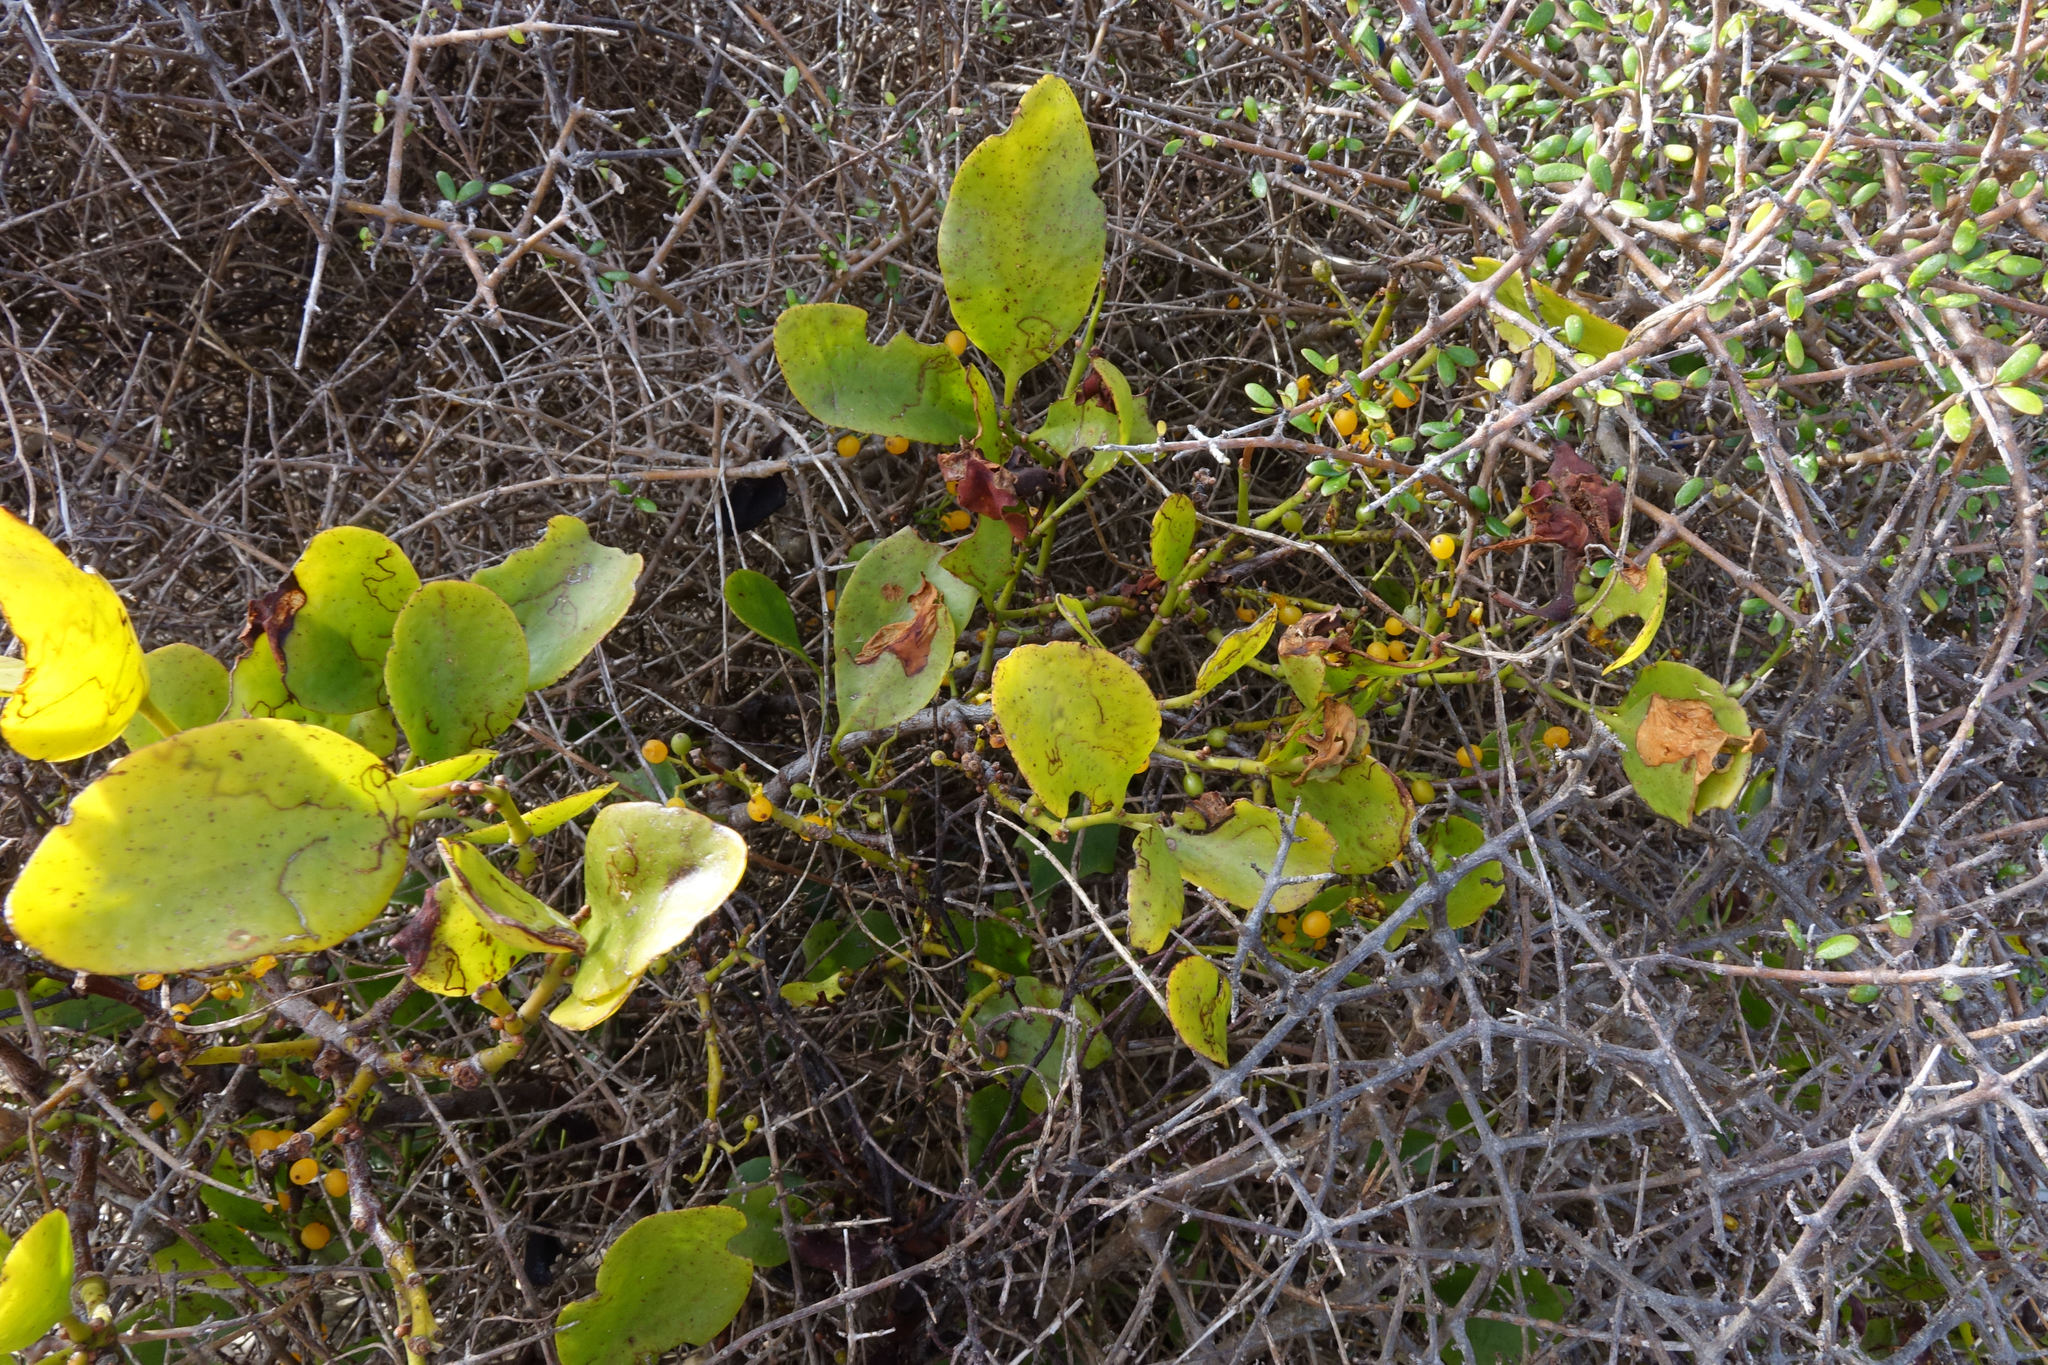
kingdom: Plantae
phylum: Tracheophyta
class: Magnoliopsida
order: Santalales
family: Loranthaceae
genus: Ileostylus
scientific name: Ileostylus micranthus
